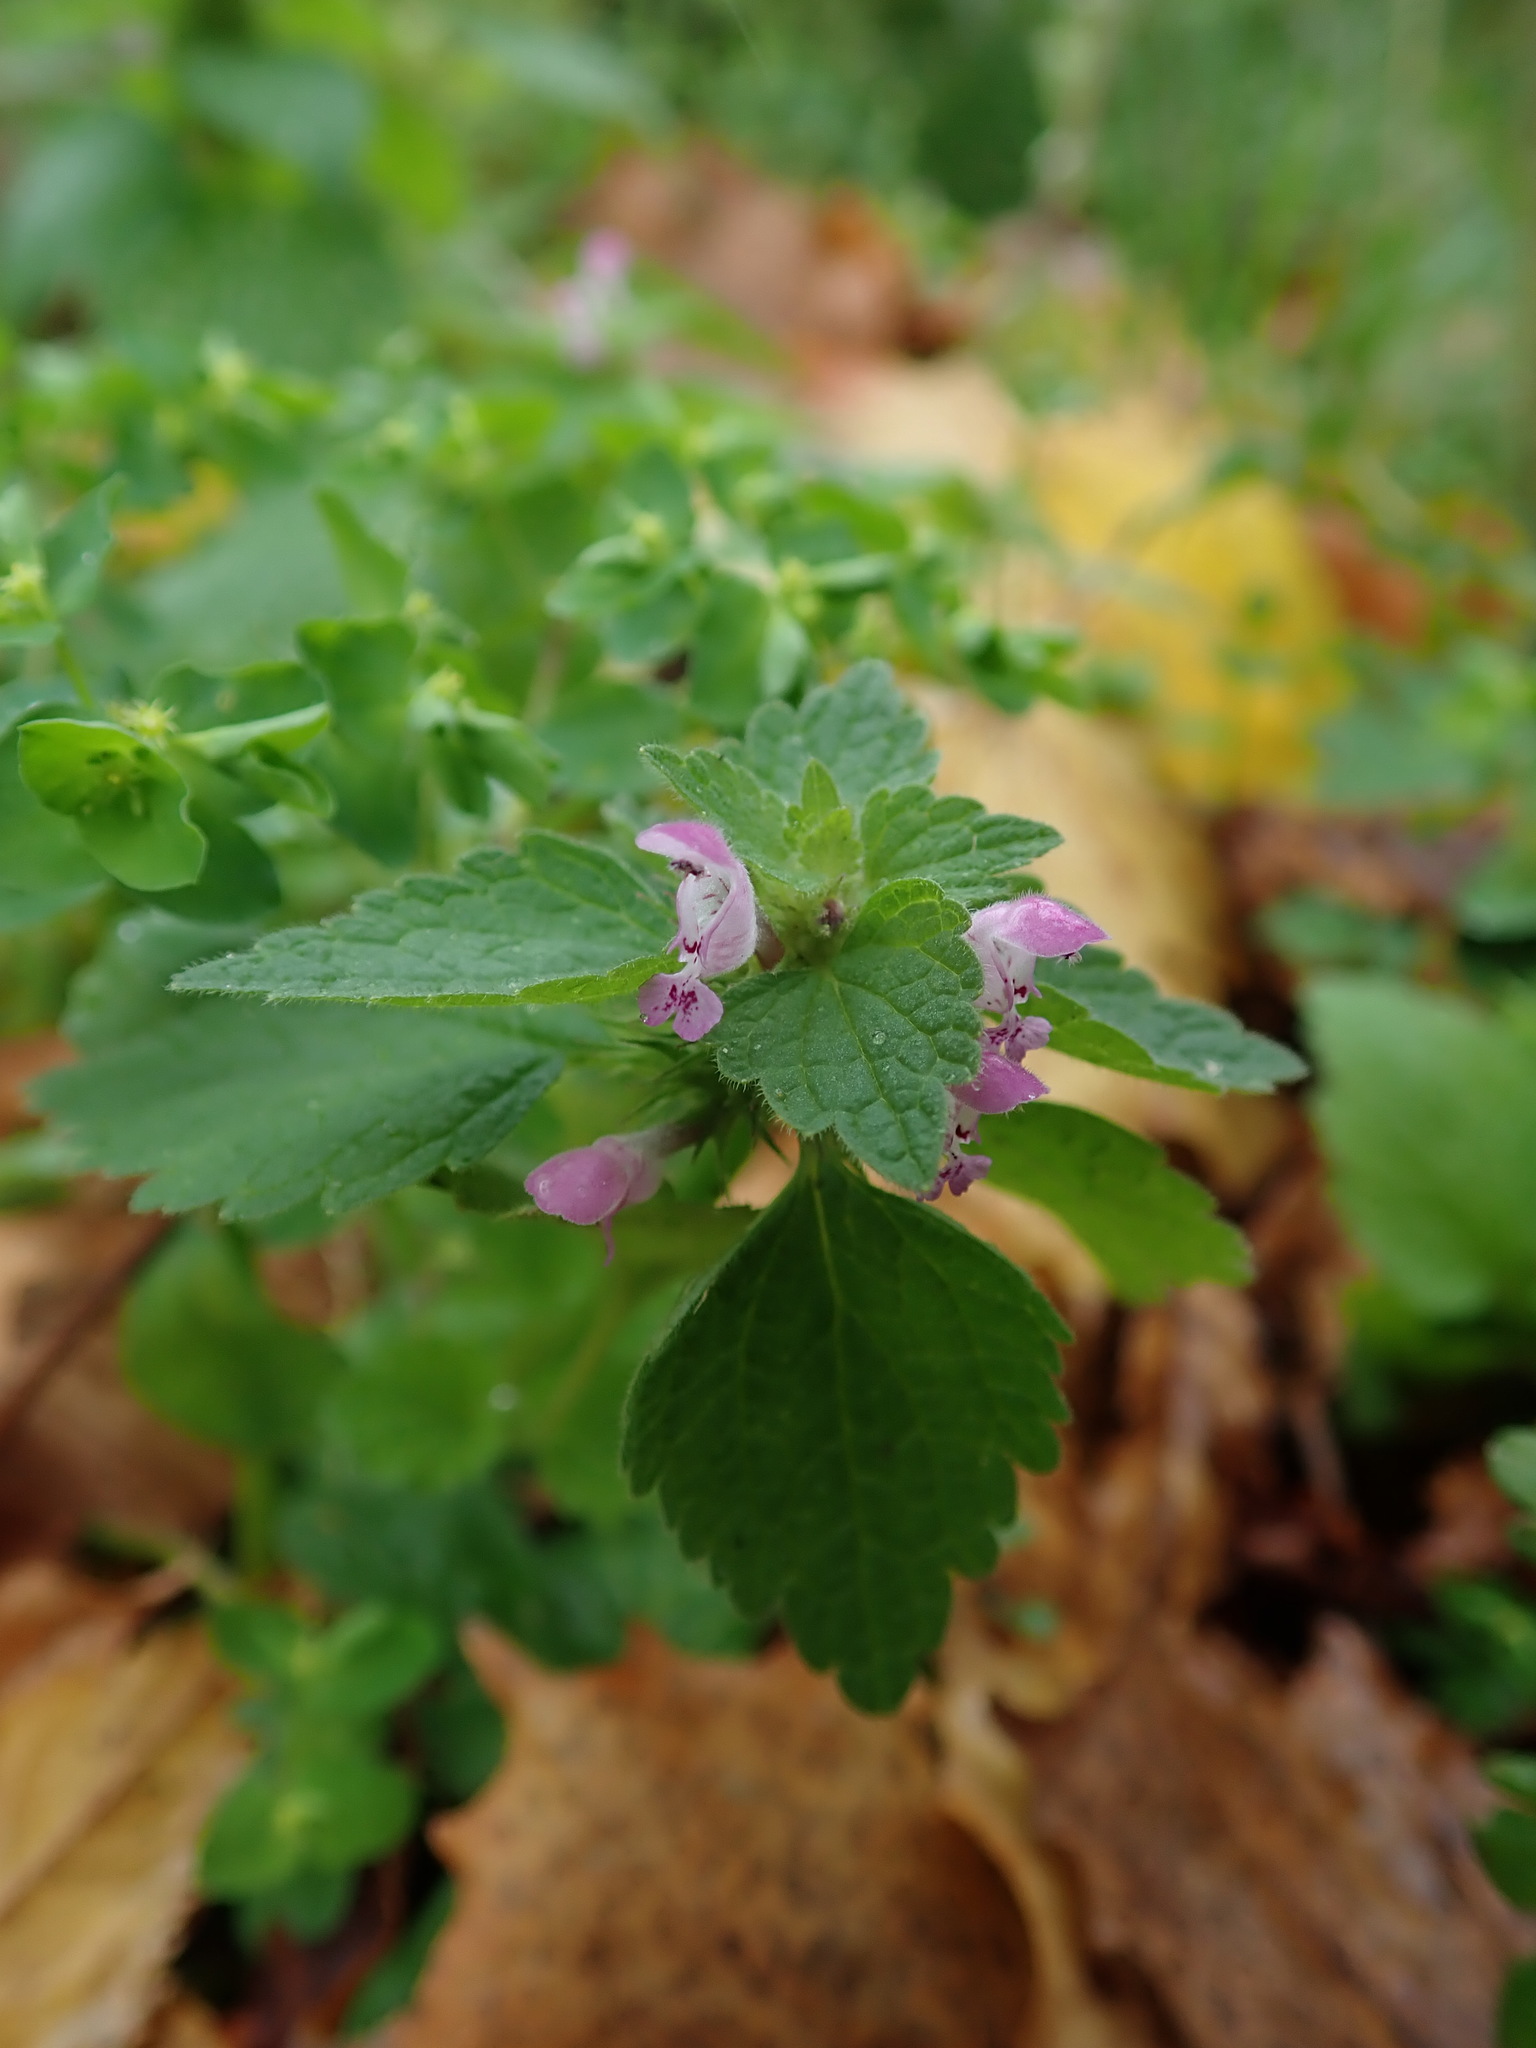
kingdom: Plantae
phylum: Tracheophyta
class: Magnoliopsida
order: Lamiales
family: Lamiaceae
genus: Lamium
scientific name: Lamium purpureum
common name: Red dead-nettle
